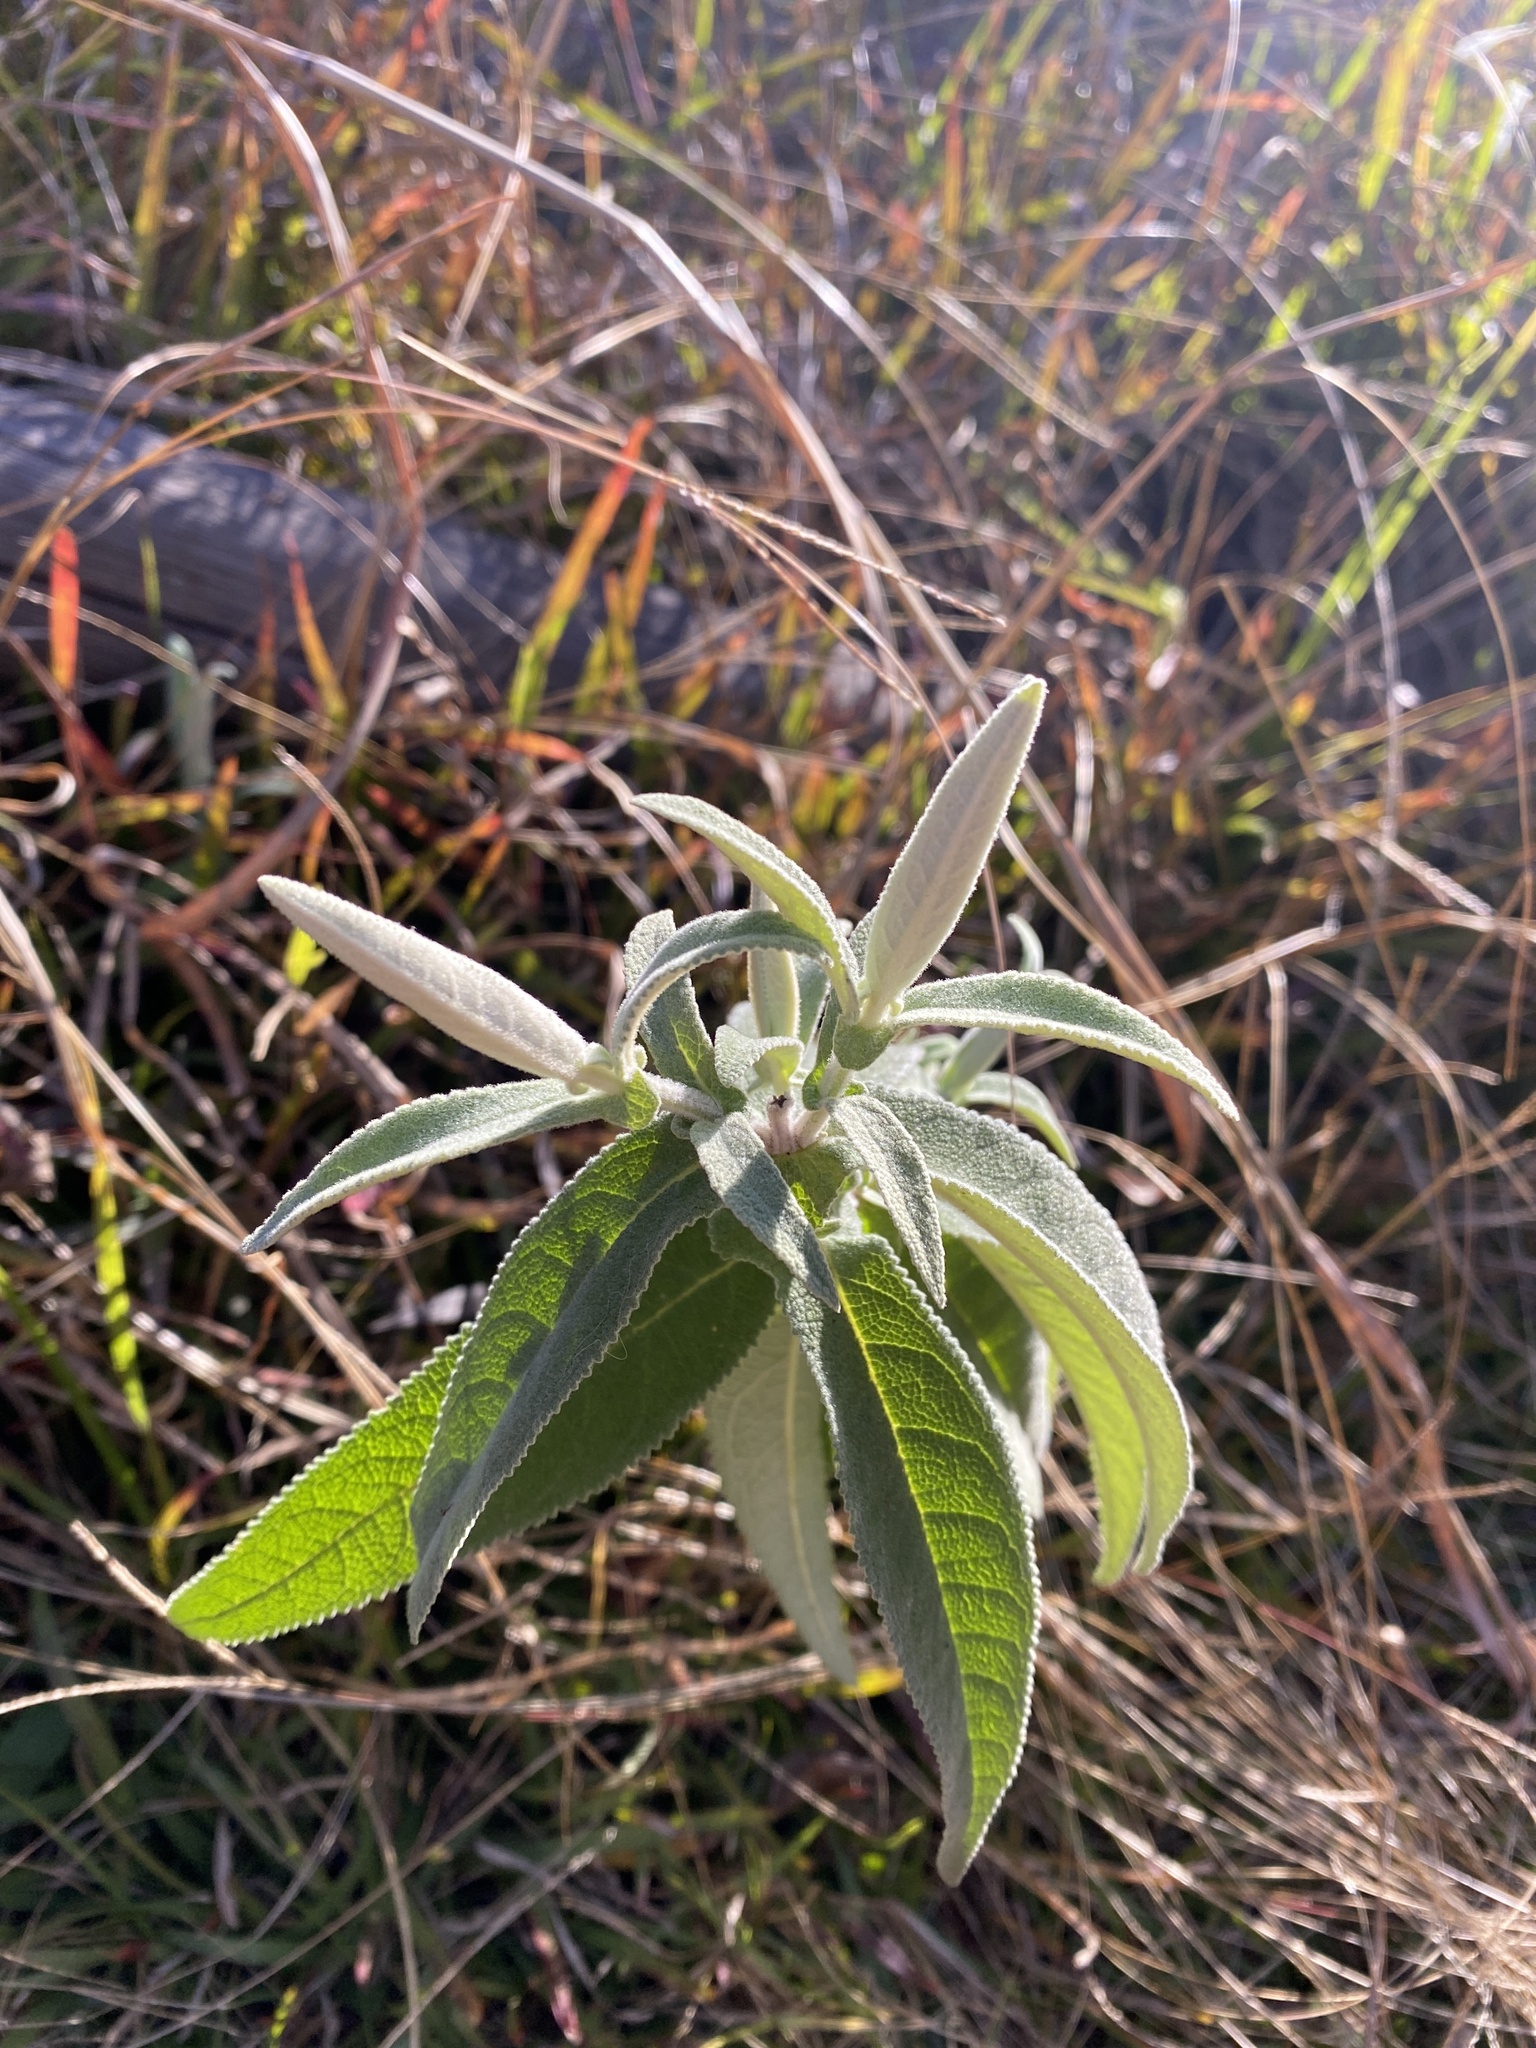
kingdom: Plantae
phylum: Tracheophyta
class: Magnoliopsida
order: Lamiales
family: Scrophulariaceae
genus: Buddleja
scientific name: Buddleja salviifolia
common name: Sagewood
